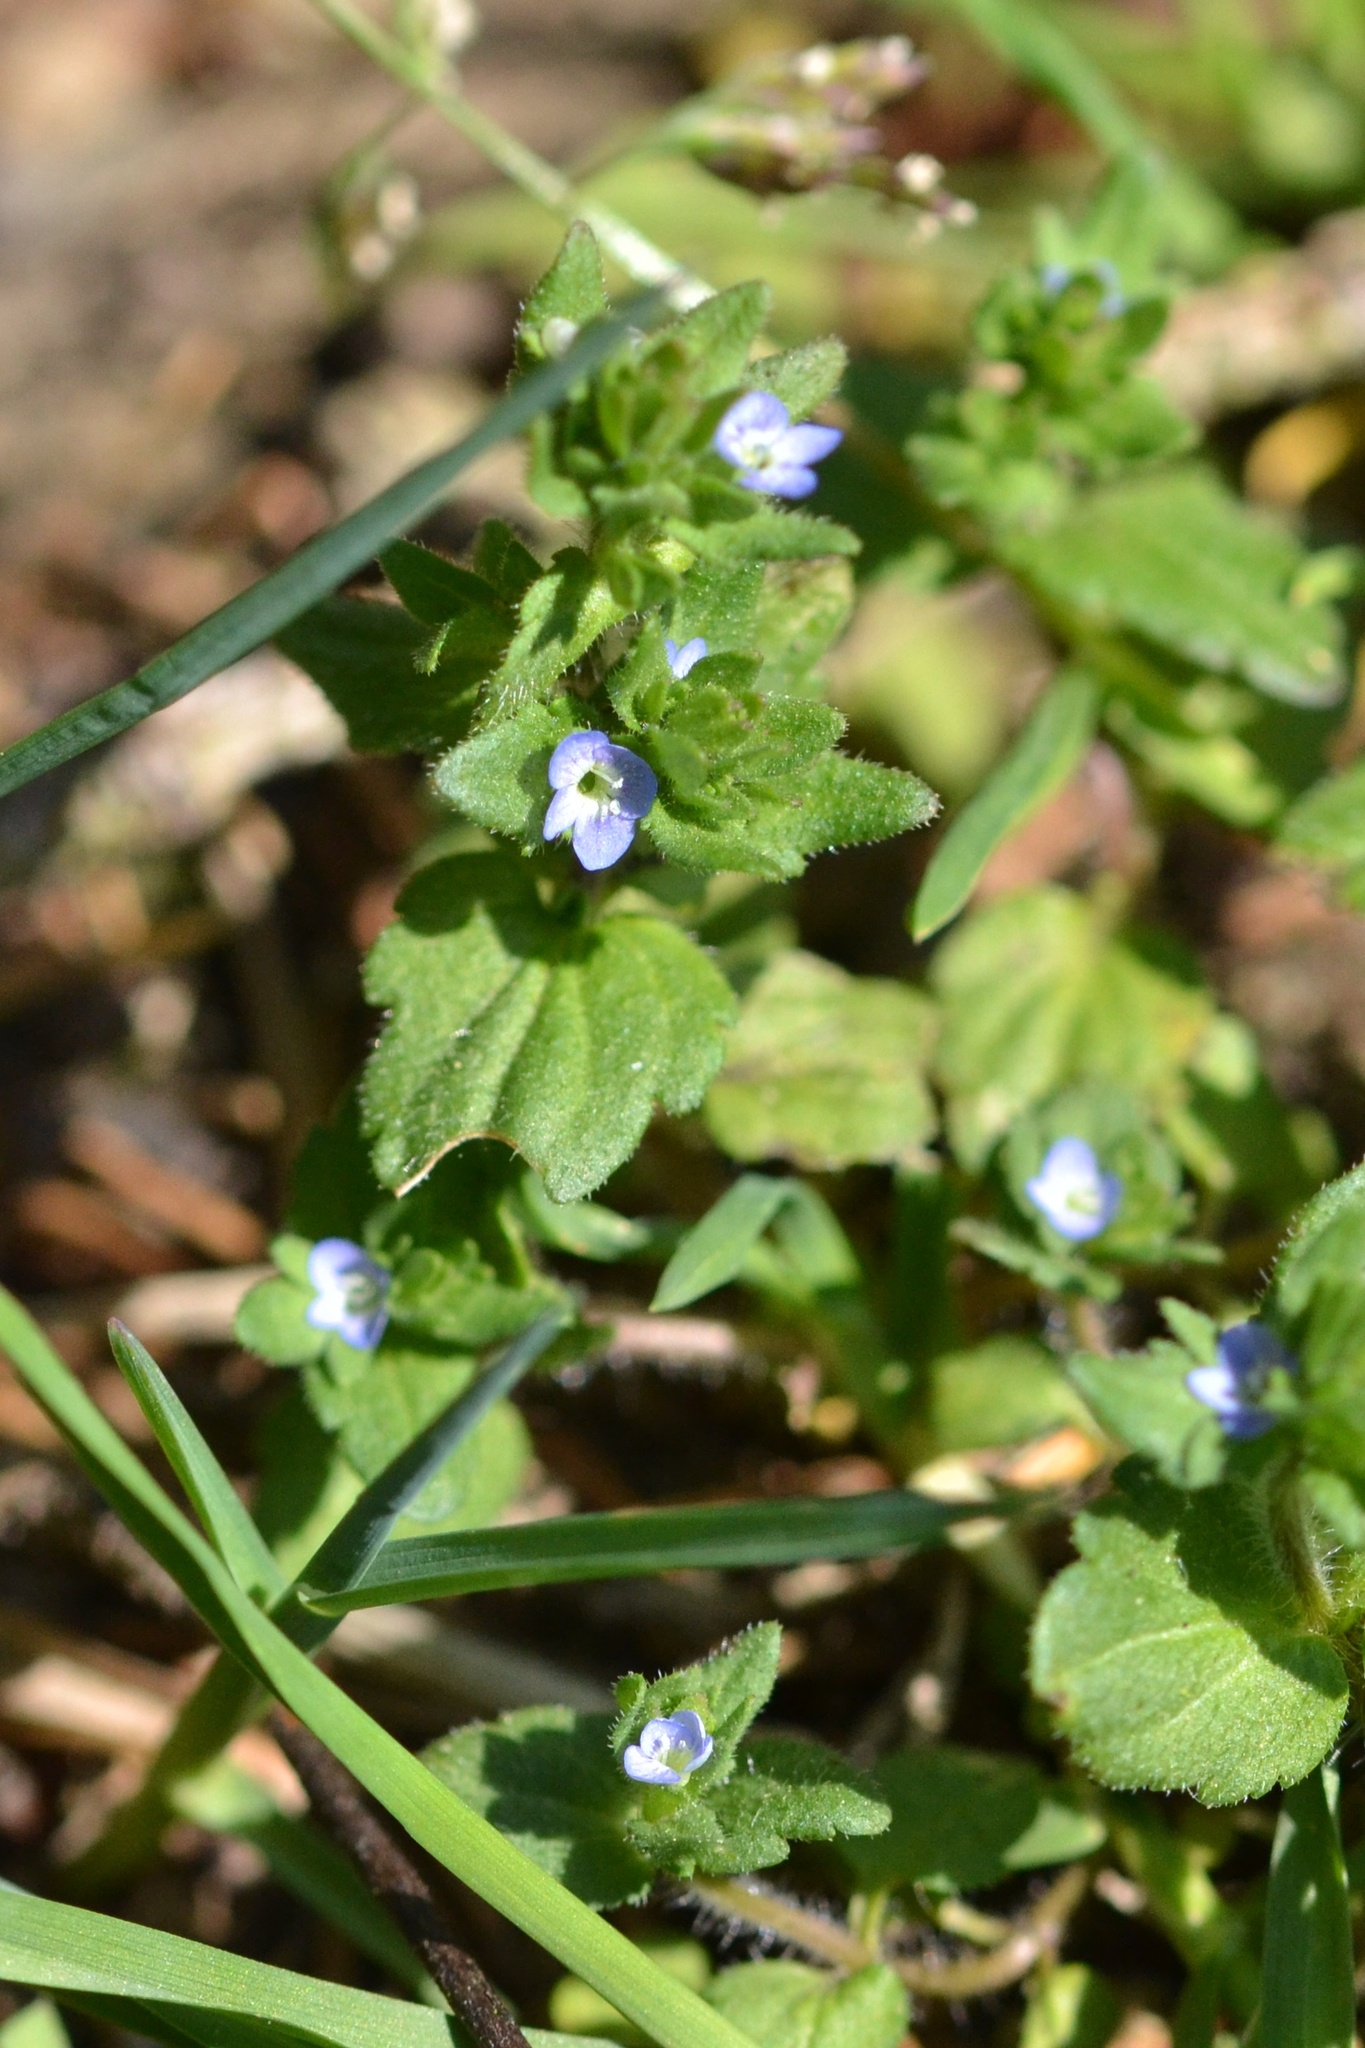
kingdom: Plantae
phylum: Tracheophyta
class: Magnoliopsida
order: Lamiales
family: Plantaginaceae
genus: Veronica
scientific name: Veronica arvensis
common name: Corn speedwell
